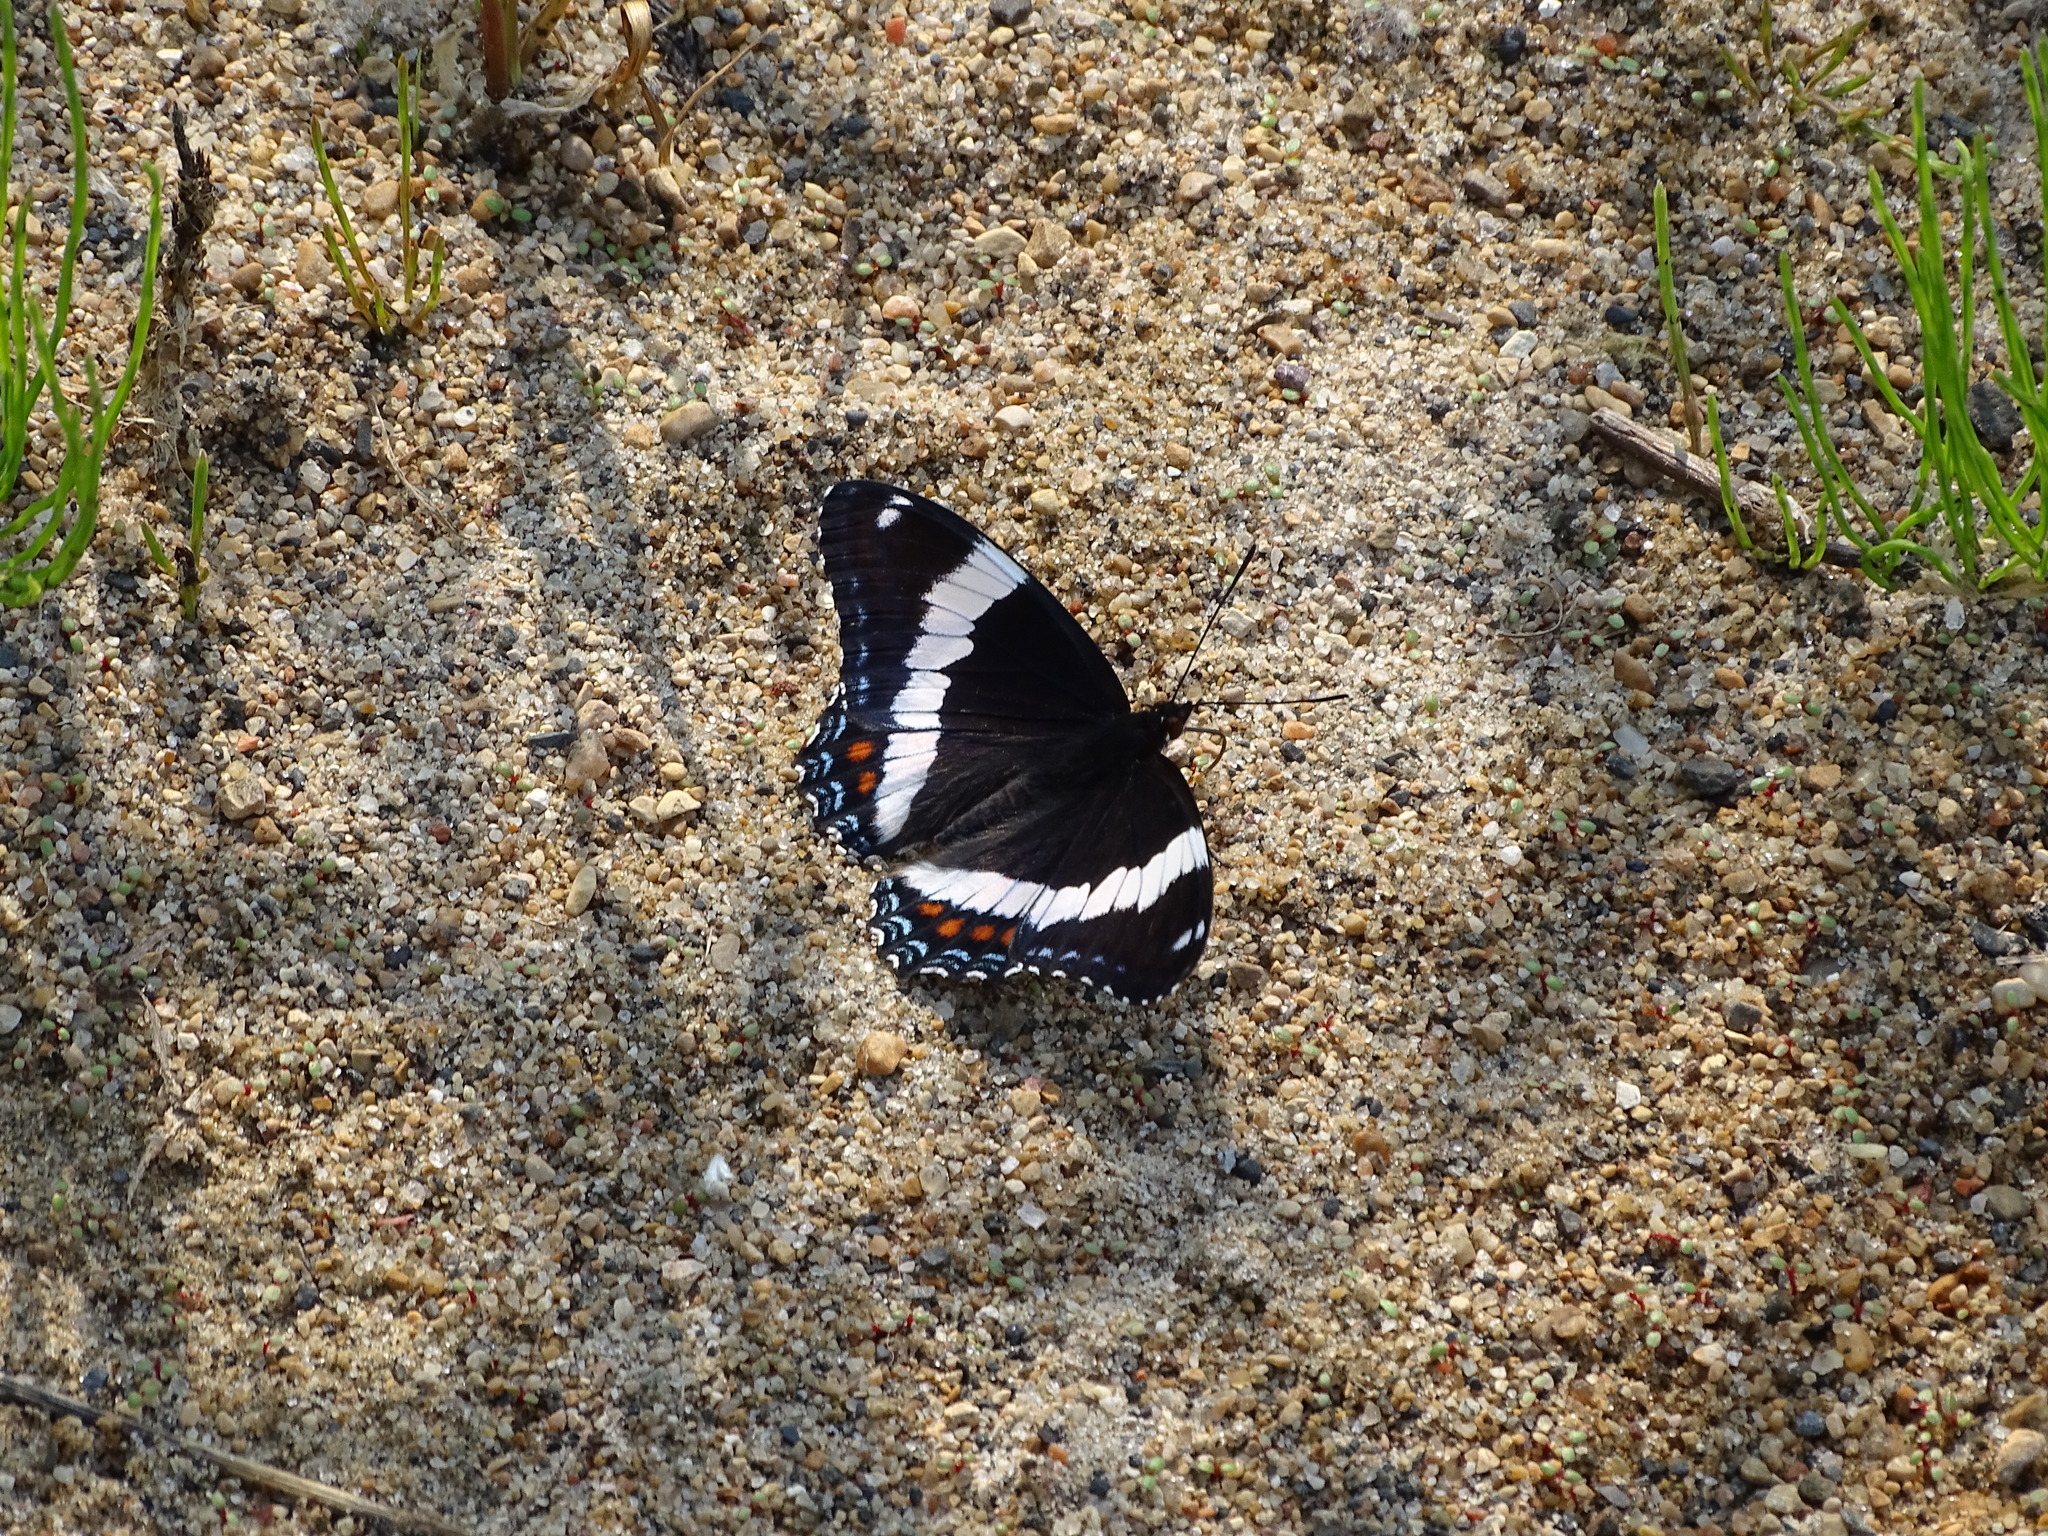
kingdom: Animalia
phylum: Arthropoda
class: Insecta
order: Lepidoptera
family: Nymphalidae
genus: Limenitis
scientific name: Limenitis arthemis
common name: Red-spotted admiral
